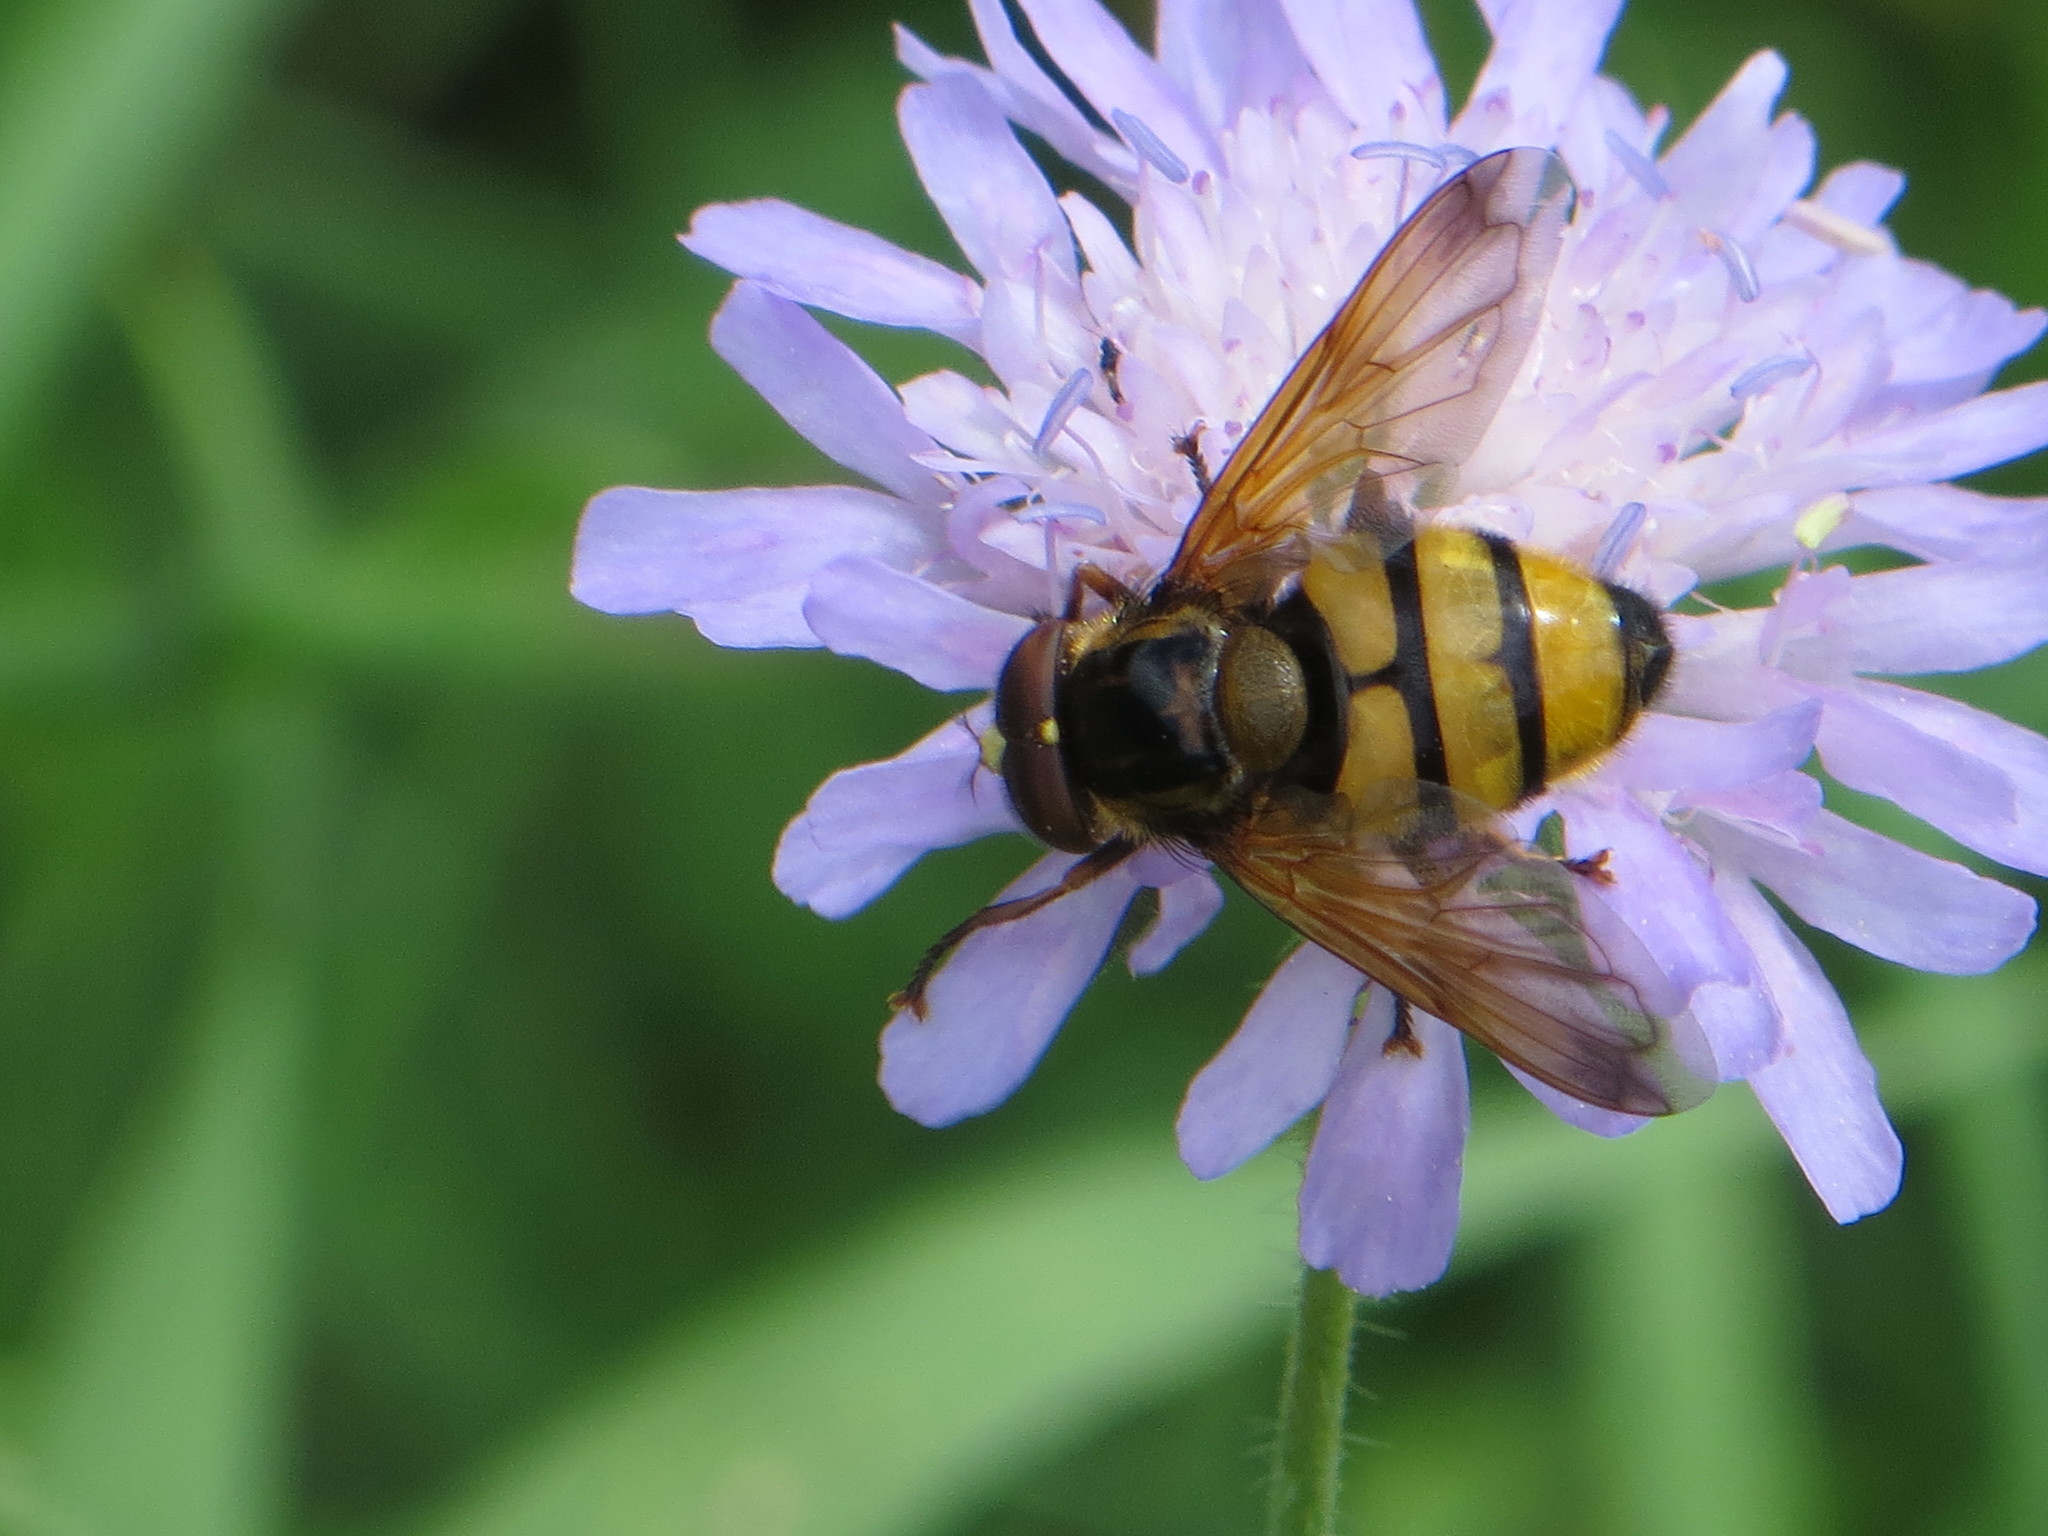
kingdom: Animalia
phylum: Arthropoda
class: Insecta
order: Diptera
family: Syrphidae
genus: Volucella
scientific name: Volucella inanis
